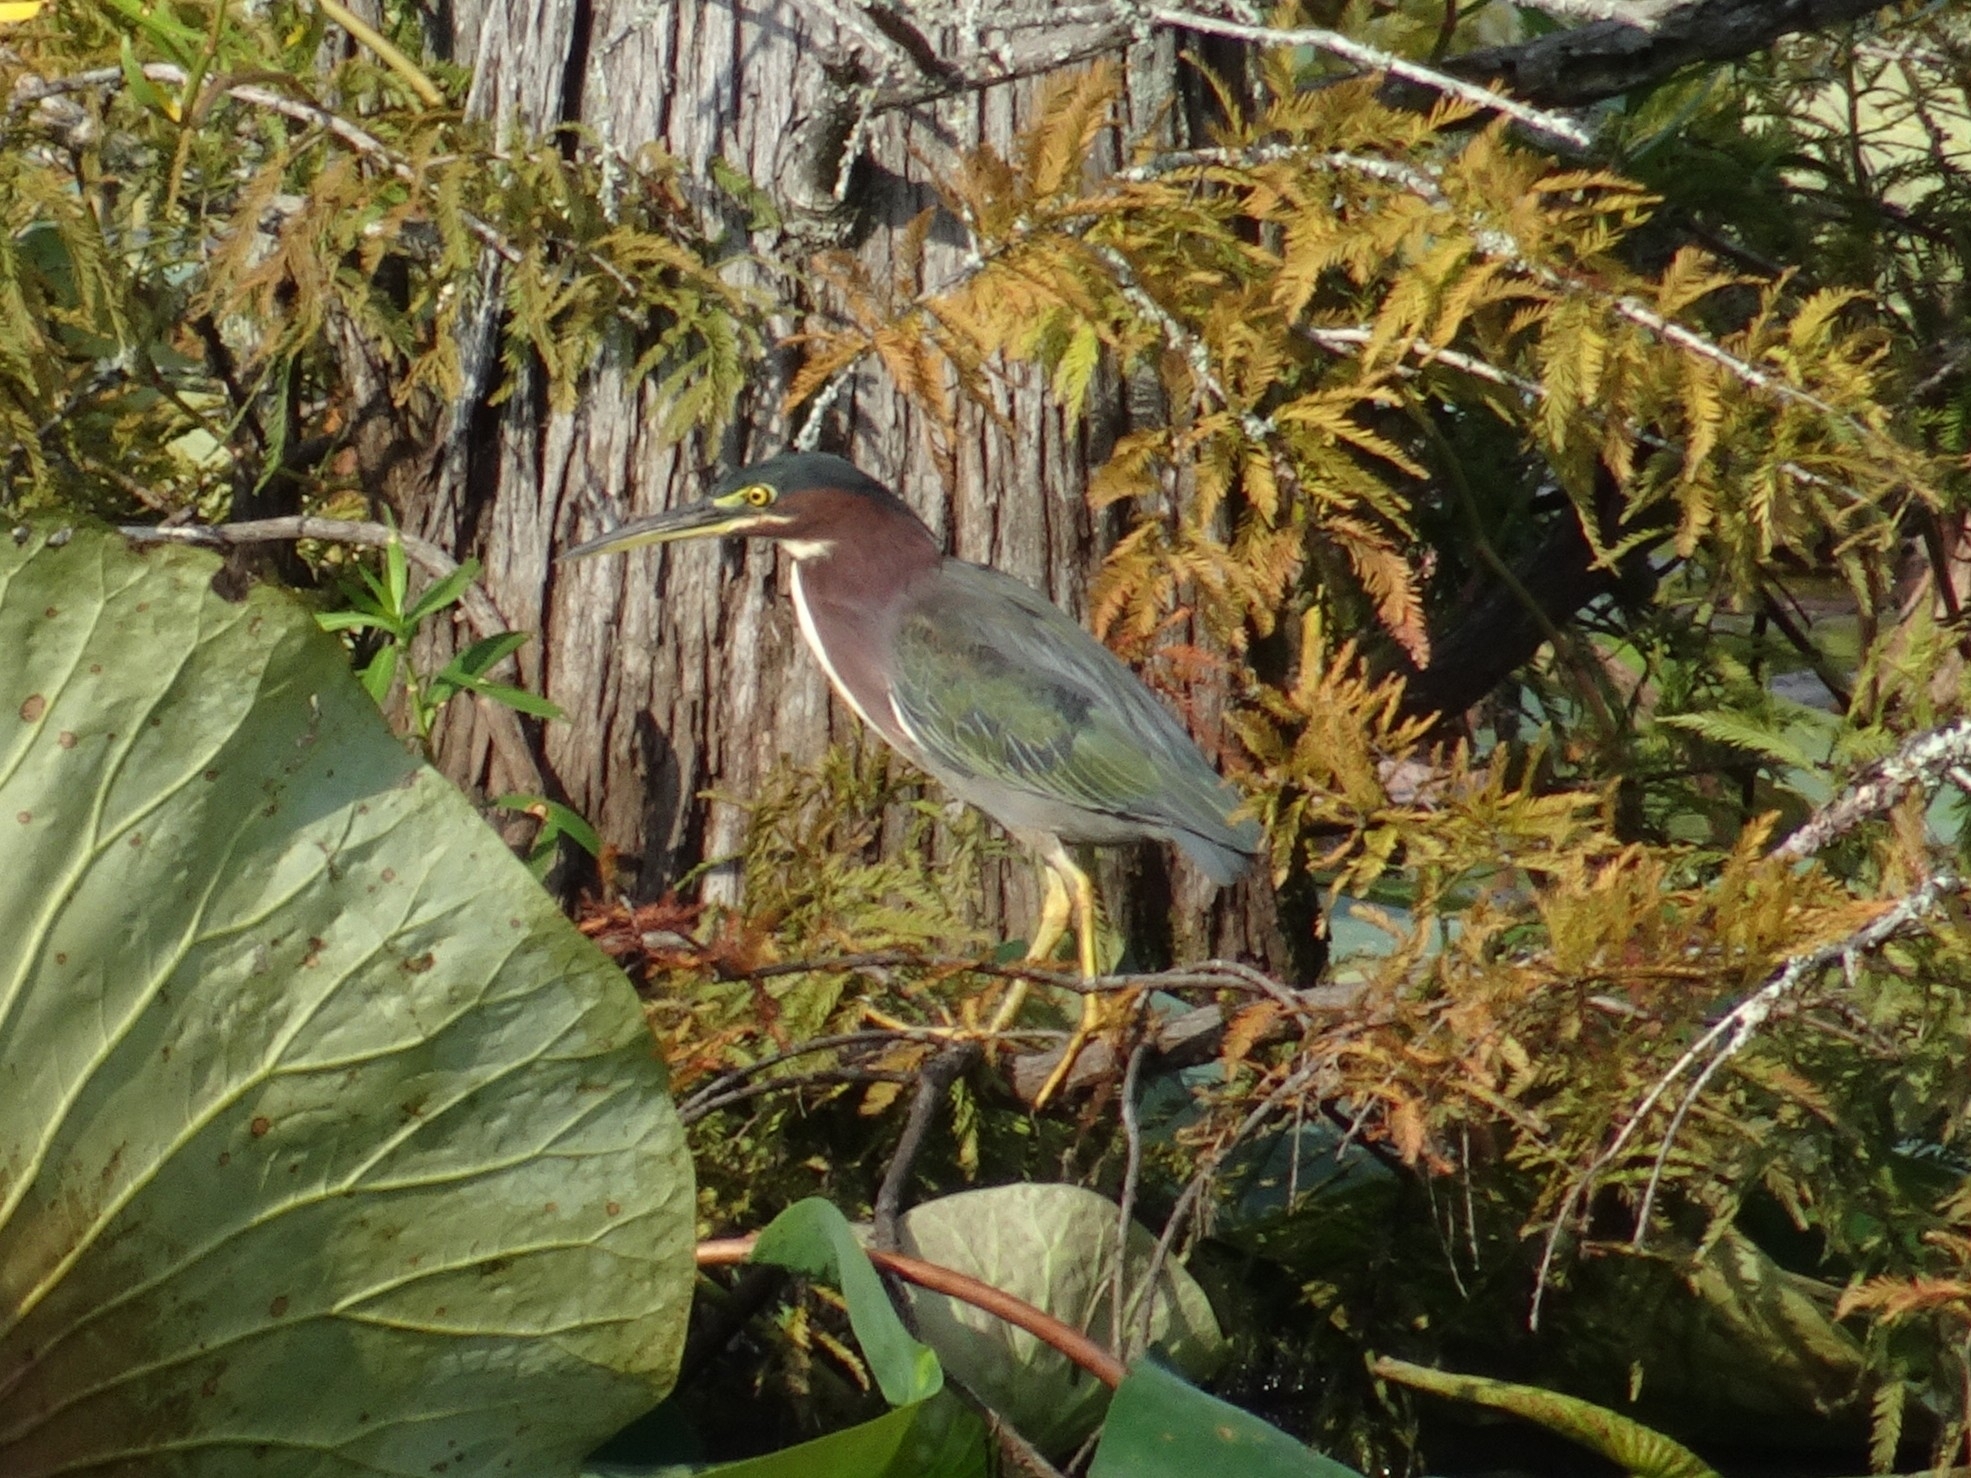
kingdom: Animalia
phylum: Chordata
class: Aves
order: Pelecaniformes
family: Ardeidae
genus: Butorides
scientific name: Butorides virescens
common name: Green heron
